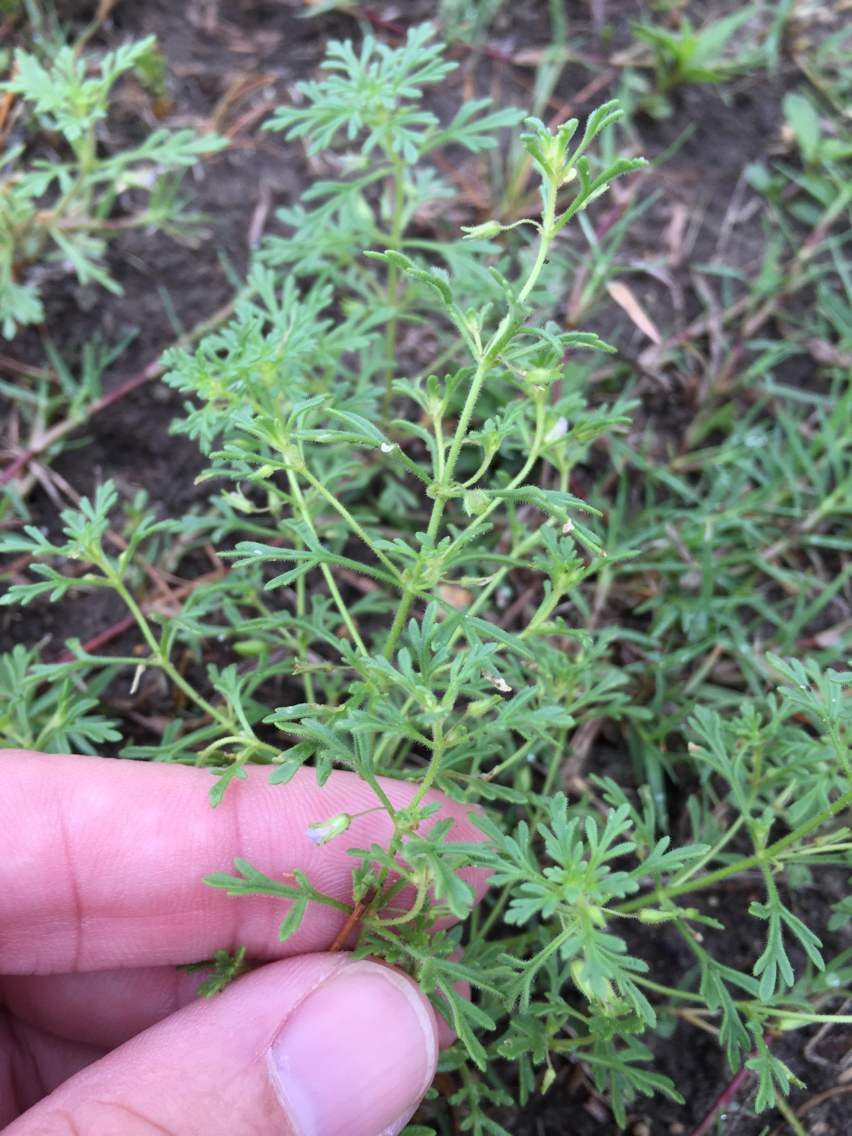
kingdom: Plantae
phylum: Tracheophyta
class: Magnoliopsida
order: Lamiales
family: Plantaginaceae
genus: Leucospora
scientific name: Leucospora multifida
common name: Narrow-leaf paleseed
